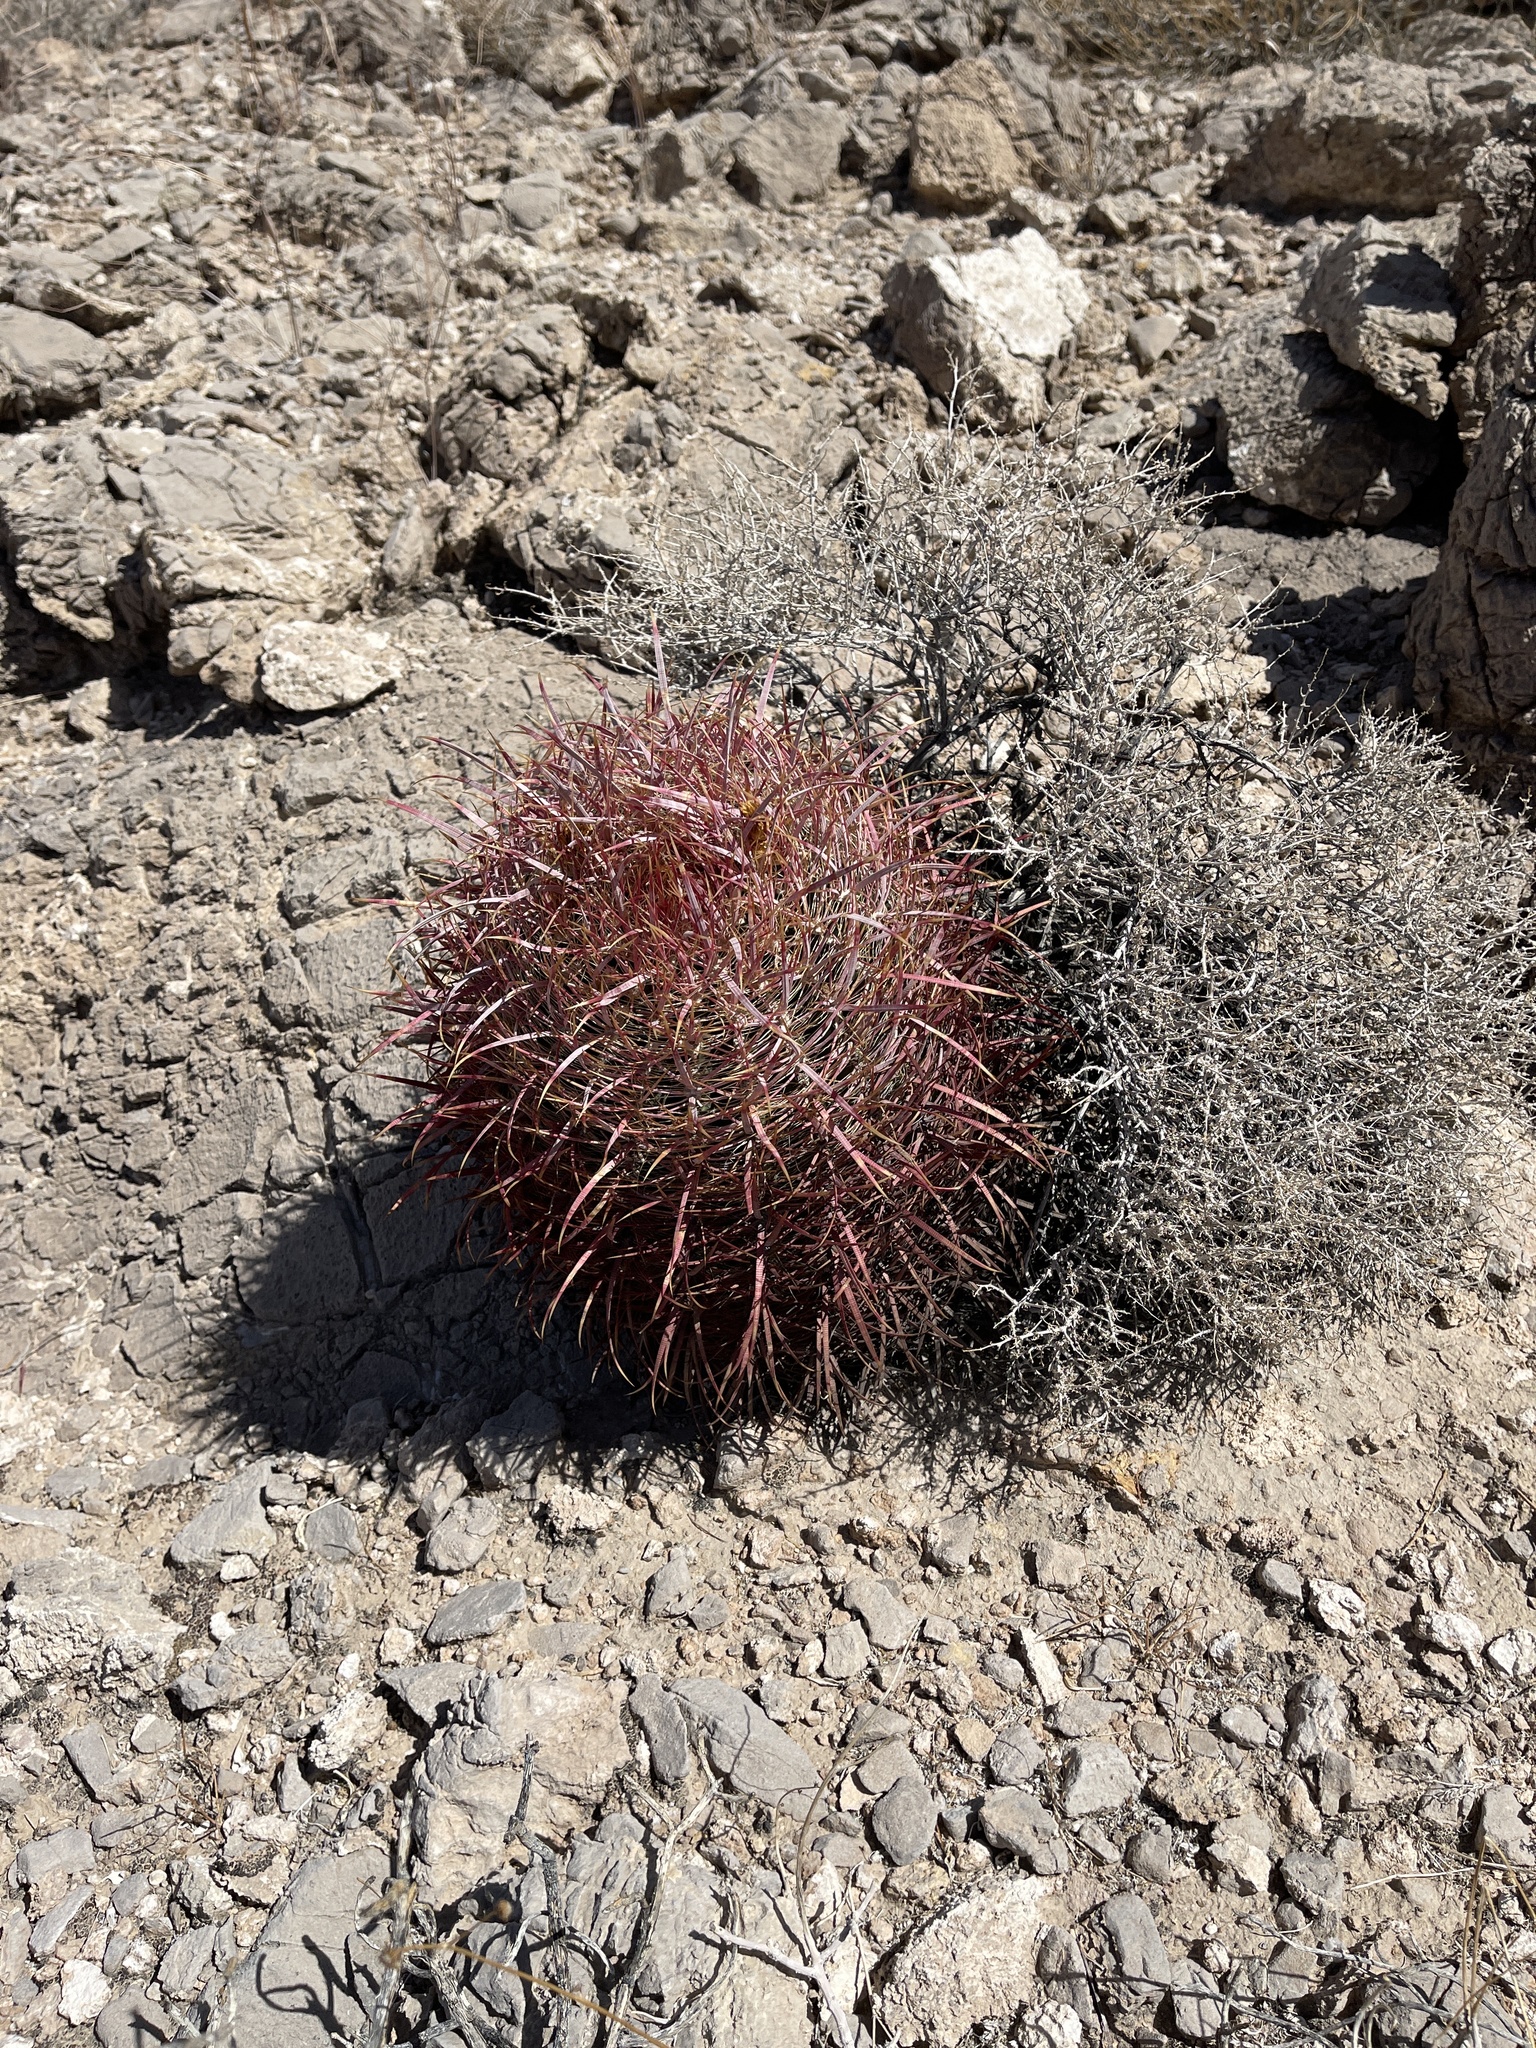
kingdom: Plantae
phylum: Tracheophyta
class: Magnoliopsida
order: Caryophyllales
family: Cactaceae
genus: Ferocactus
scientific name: Ferocactus cylindraceus
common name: California barrel cactus
